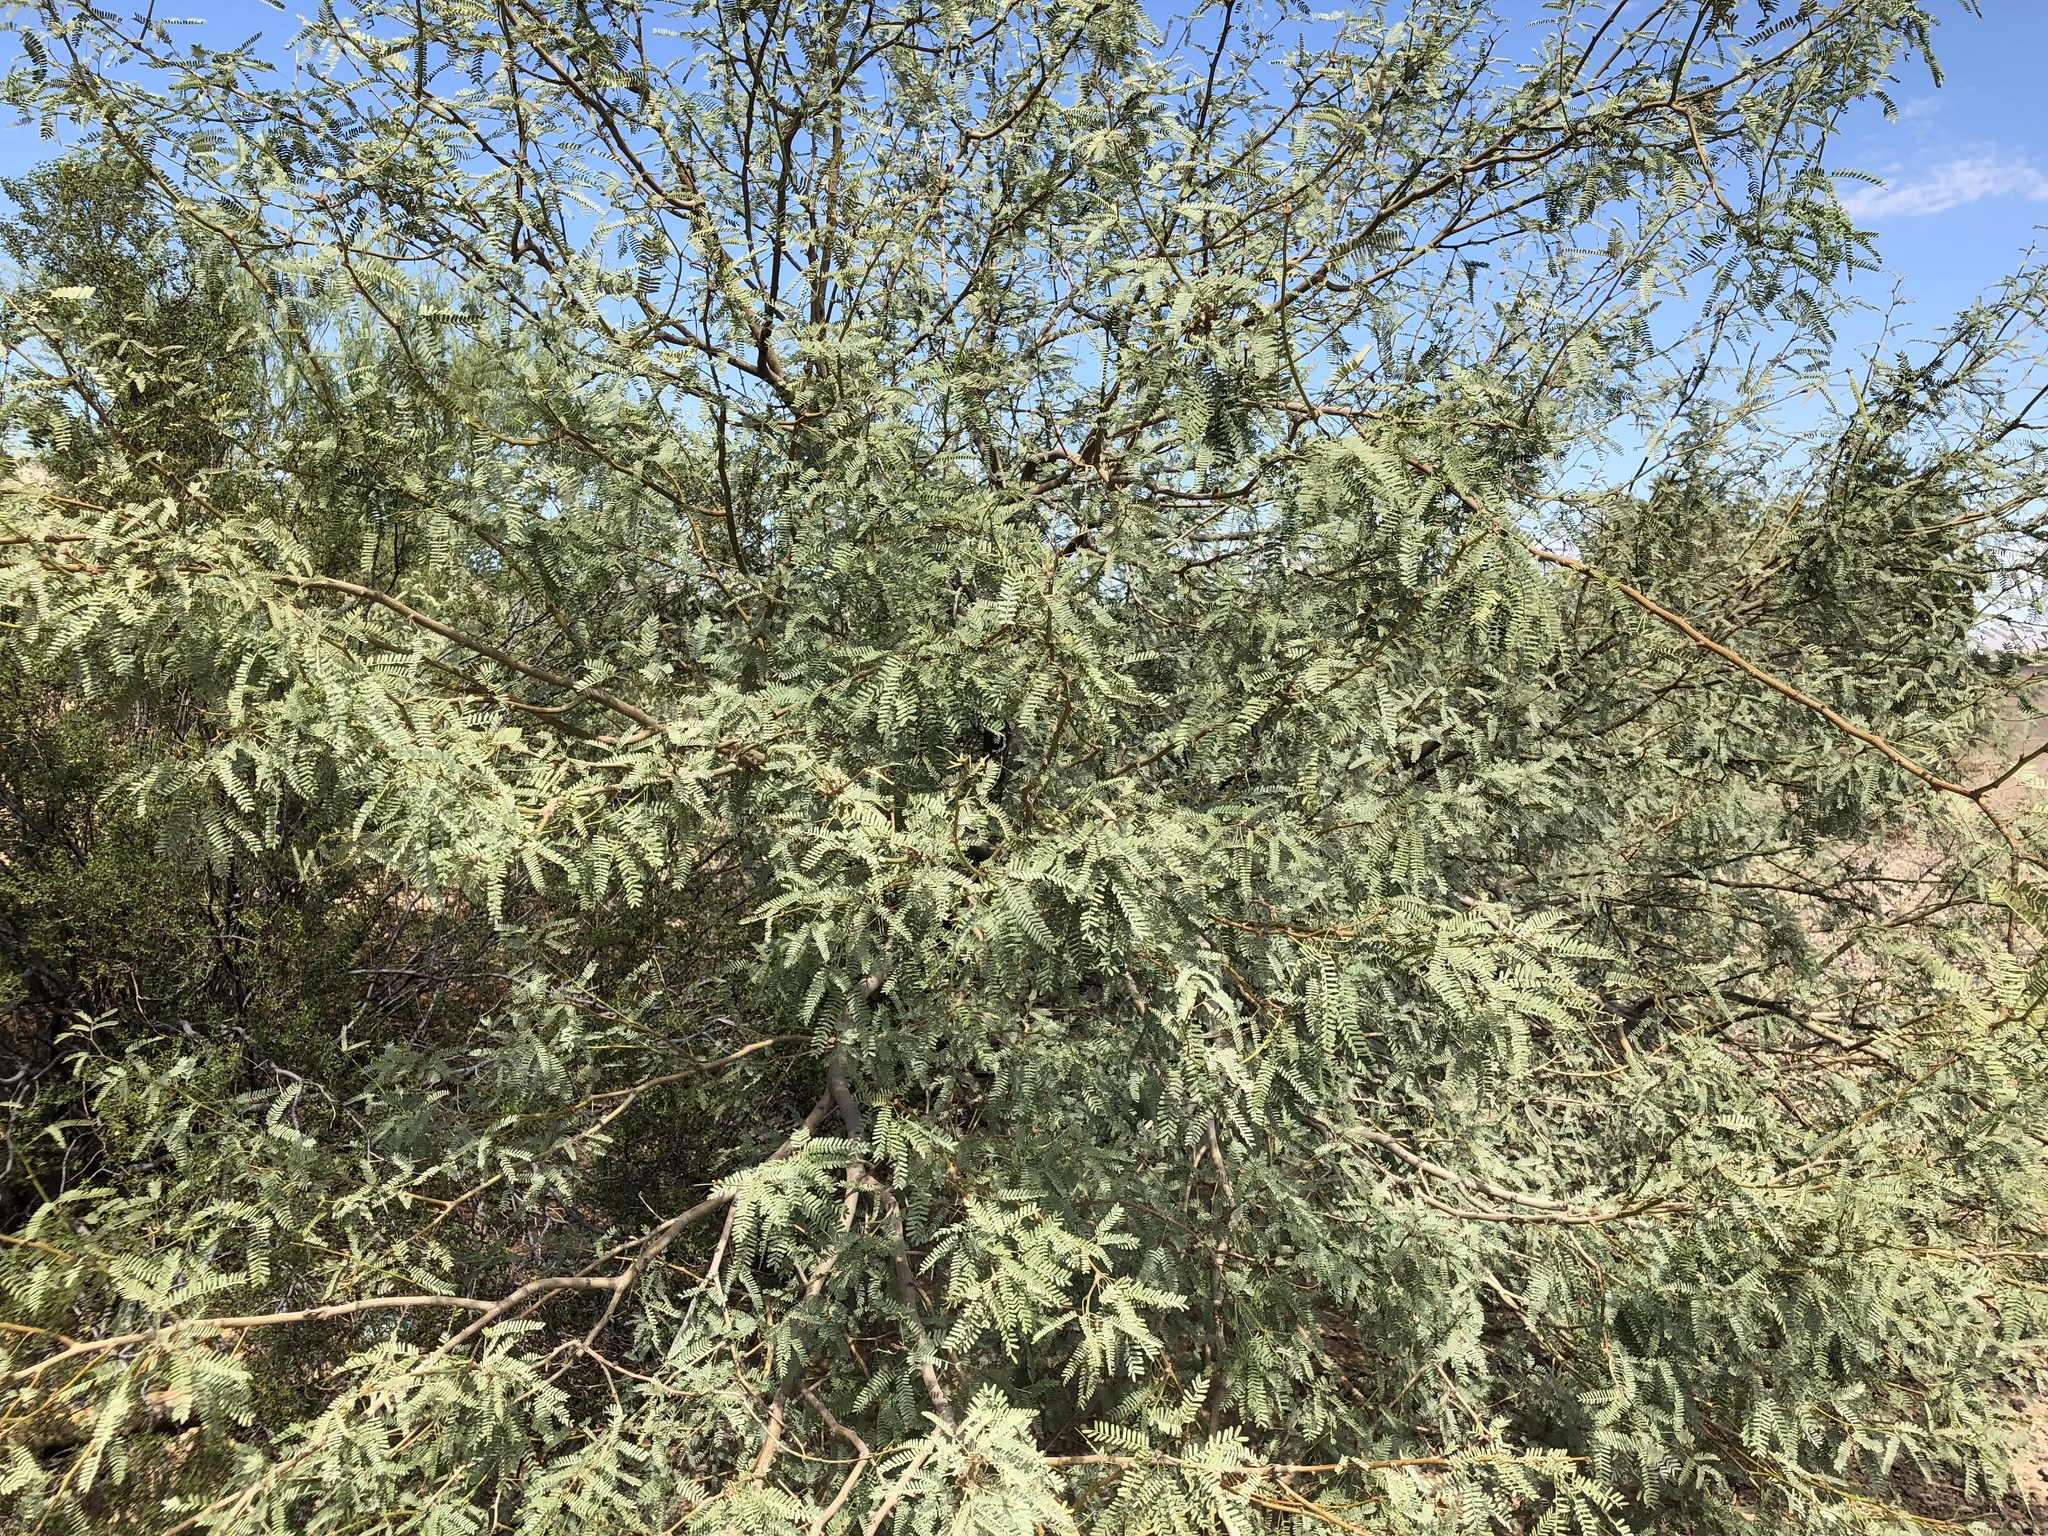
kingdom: Plantae
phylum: Tracheophyta
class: Magnoliopsida
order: Fabales
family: Fabaceae
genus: Prosopis
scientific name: Prosopis velutina
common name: Velvet mesquite
